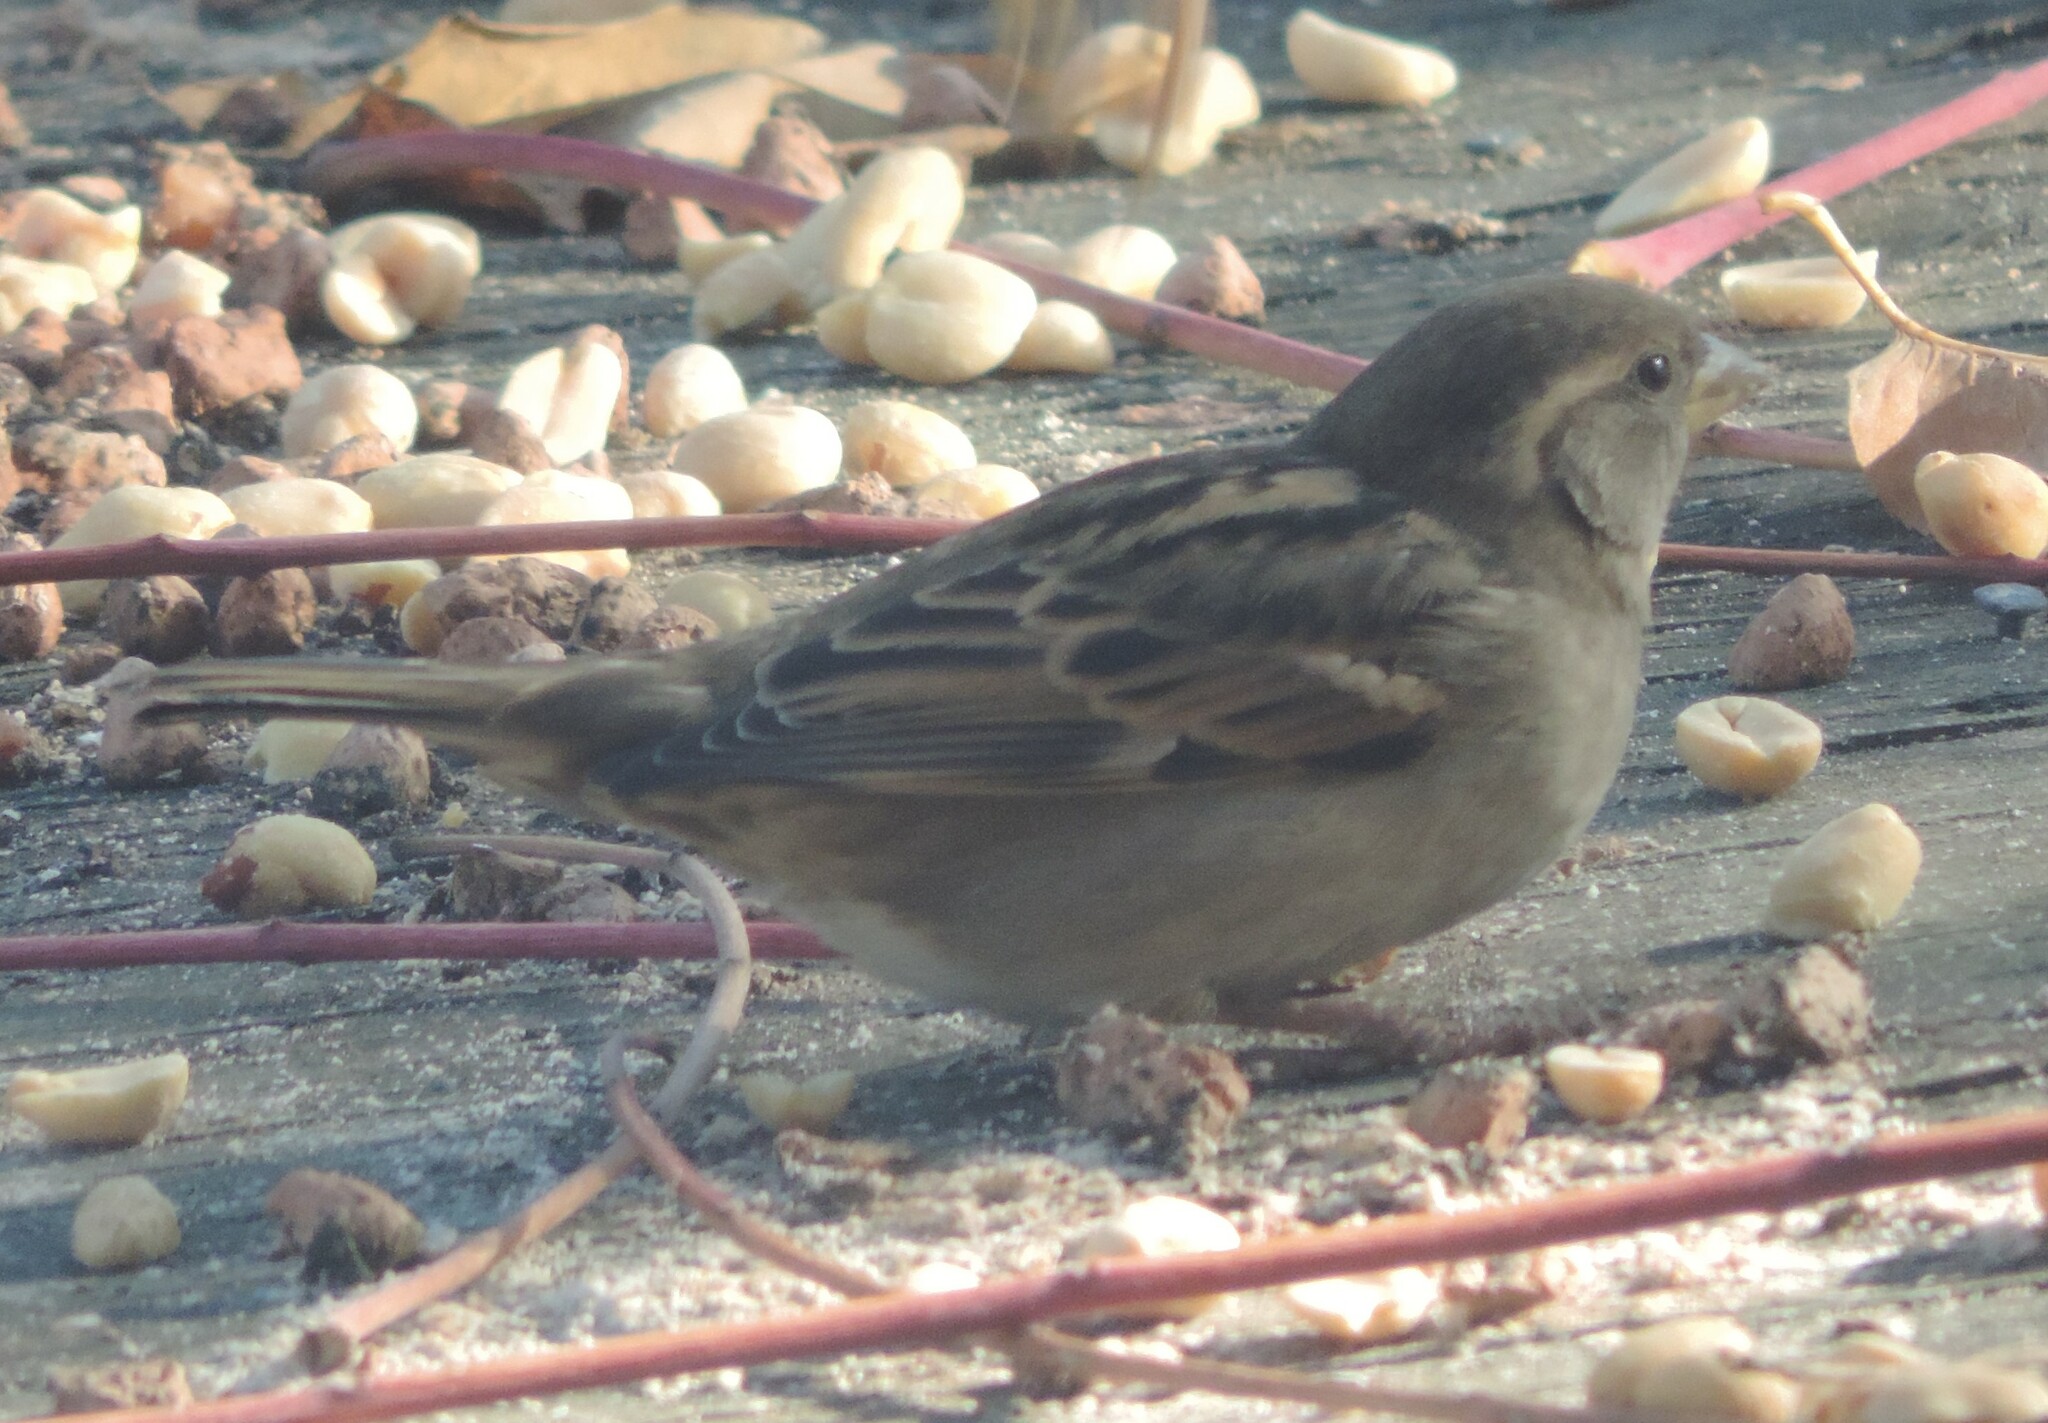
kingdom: Animalia
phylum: Chordata
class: Aves
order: Passeriformes
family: Passeridae
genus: Passer
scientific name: Passer domesticus
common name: House sparrow
